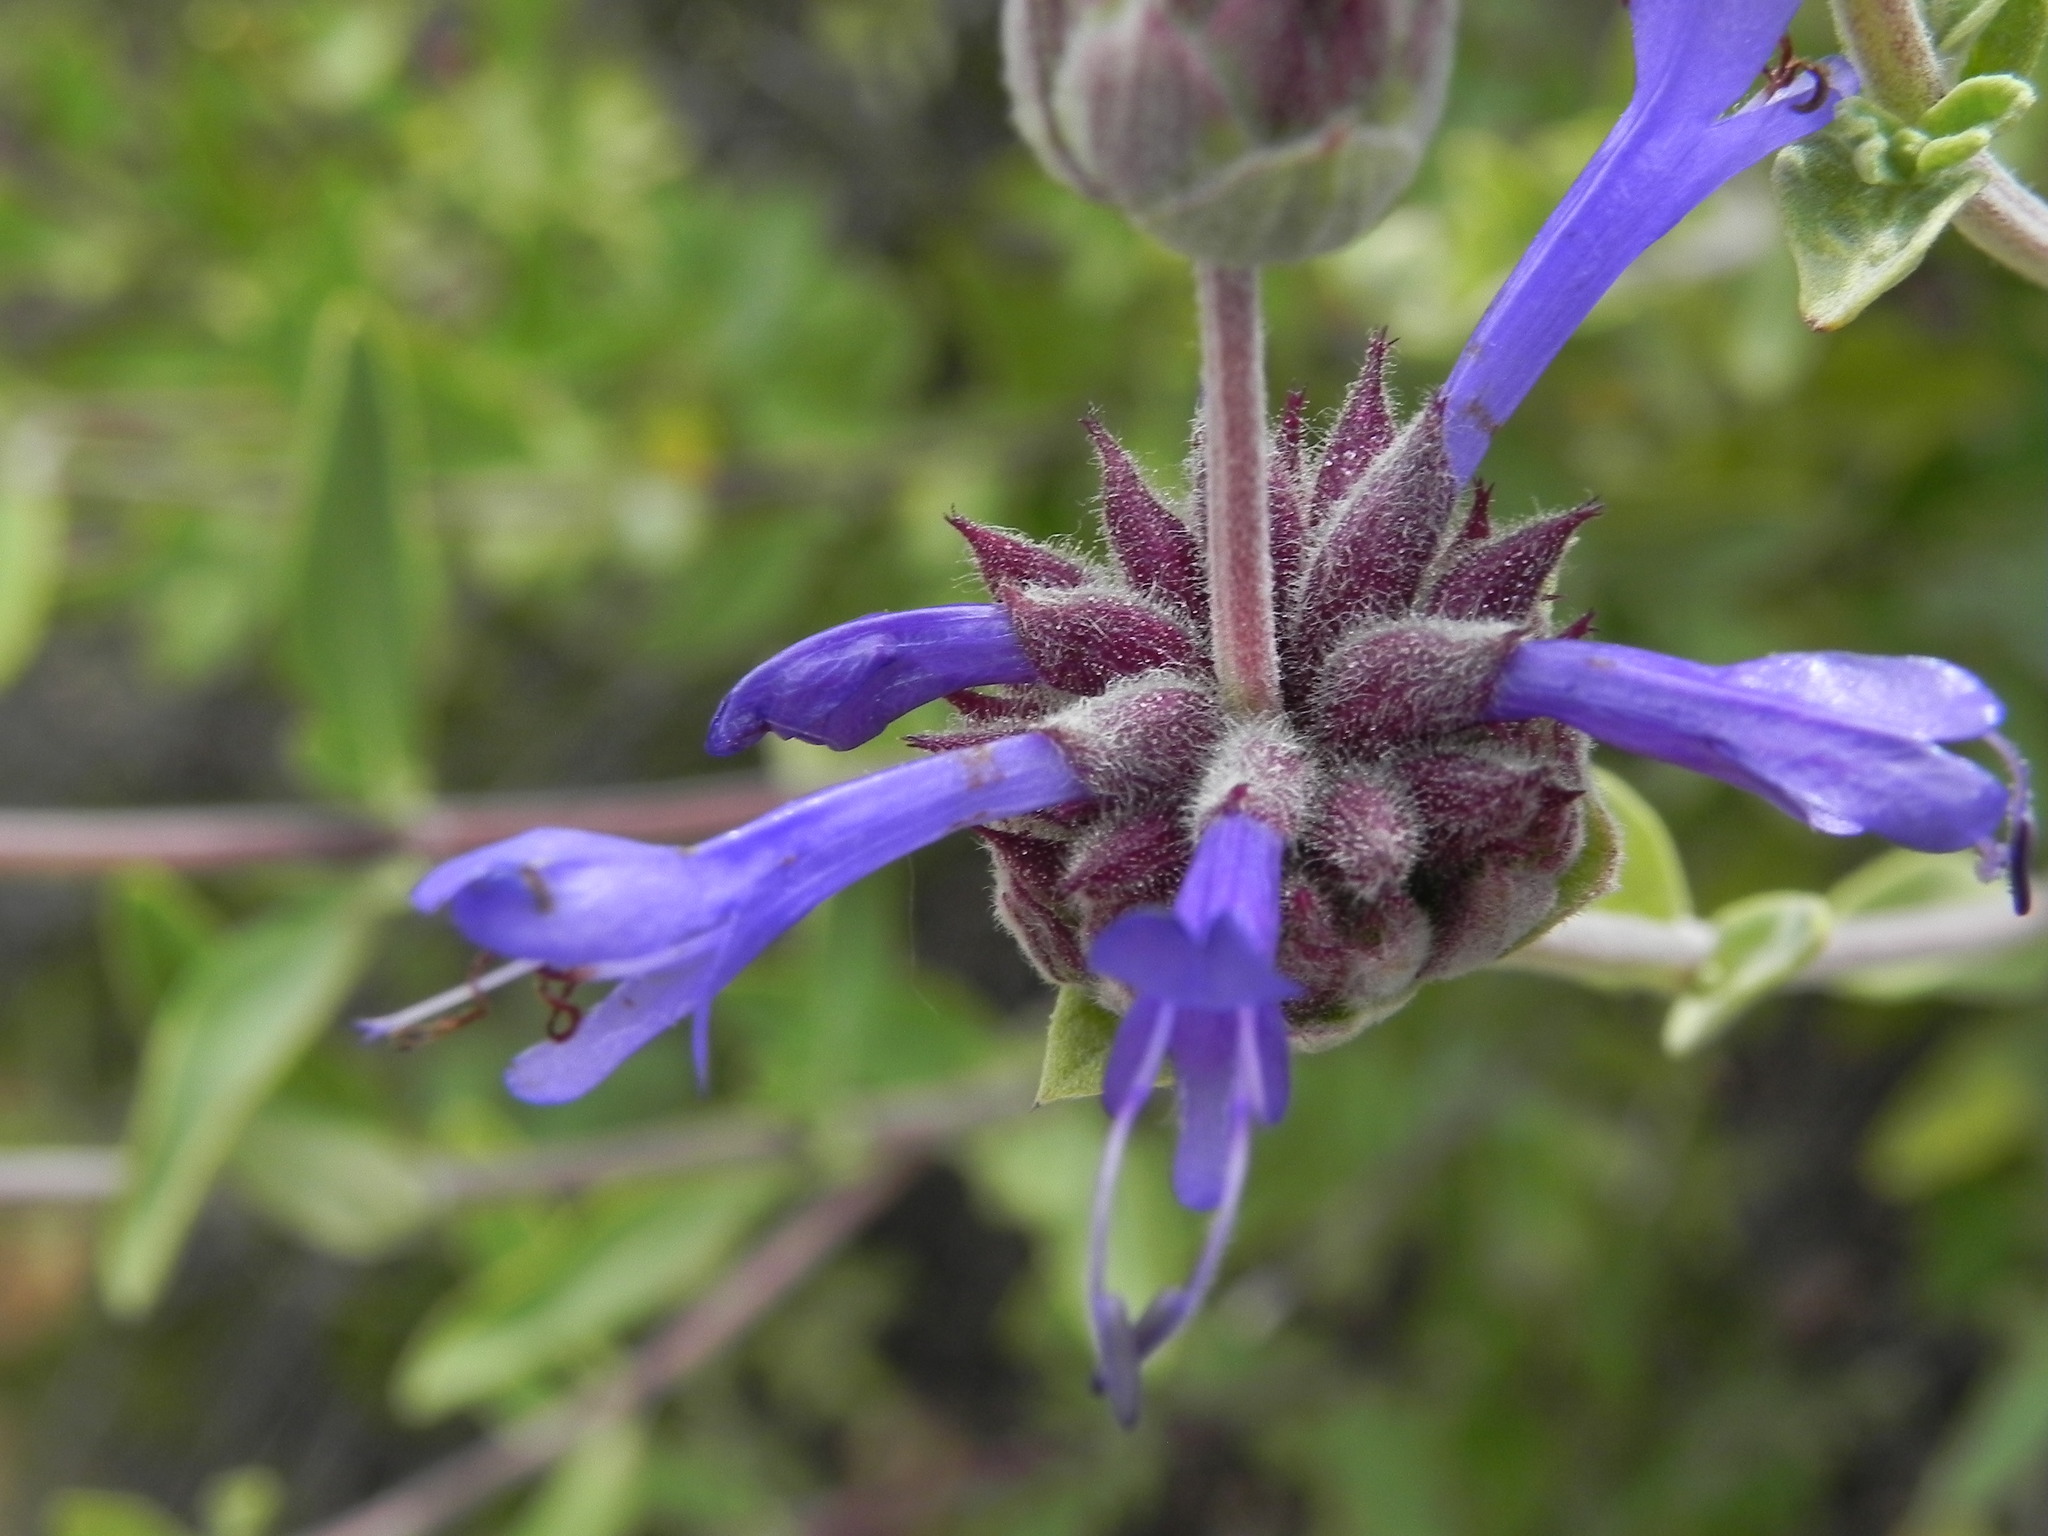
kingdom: Plantae
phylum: Tracheophyta
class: Magnoliopsida
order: Lamiales
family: Lamiaceae
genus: Salvia
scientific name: Salvia clevelandii
